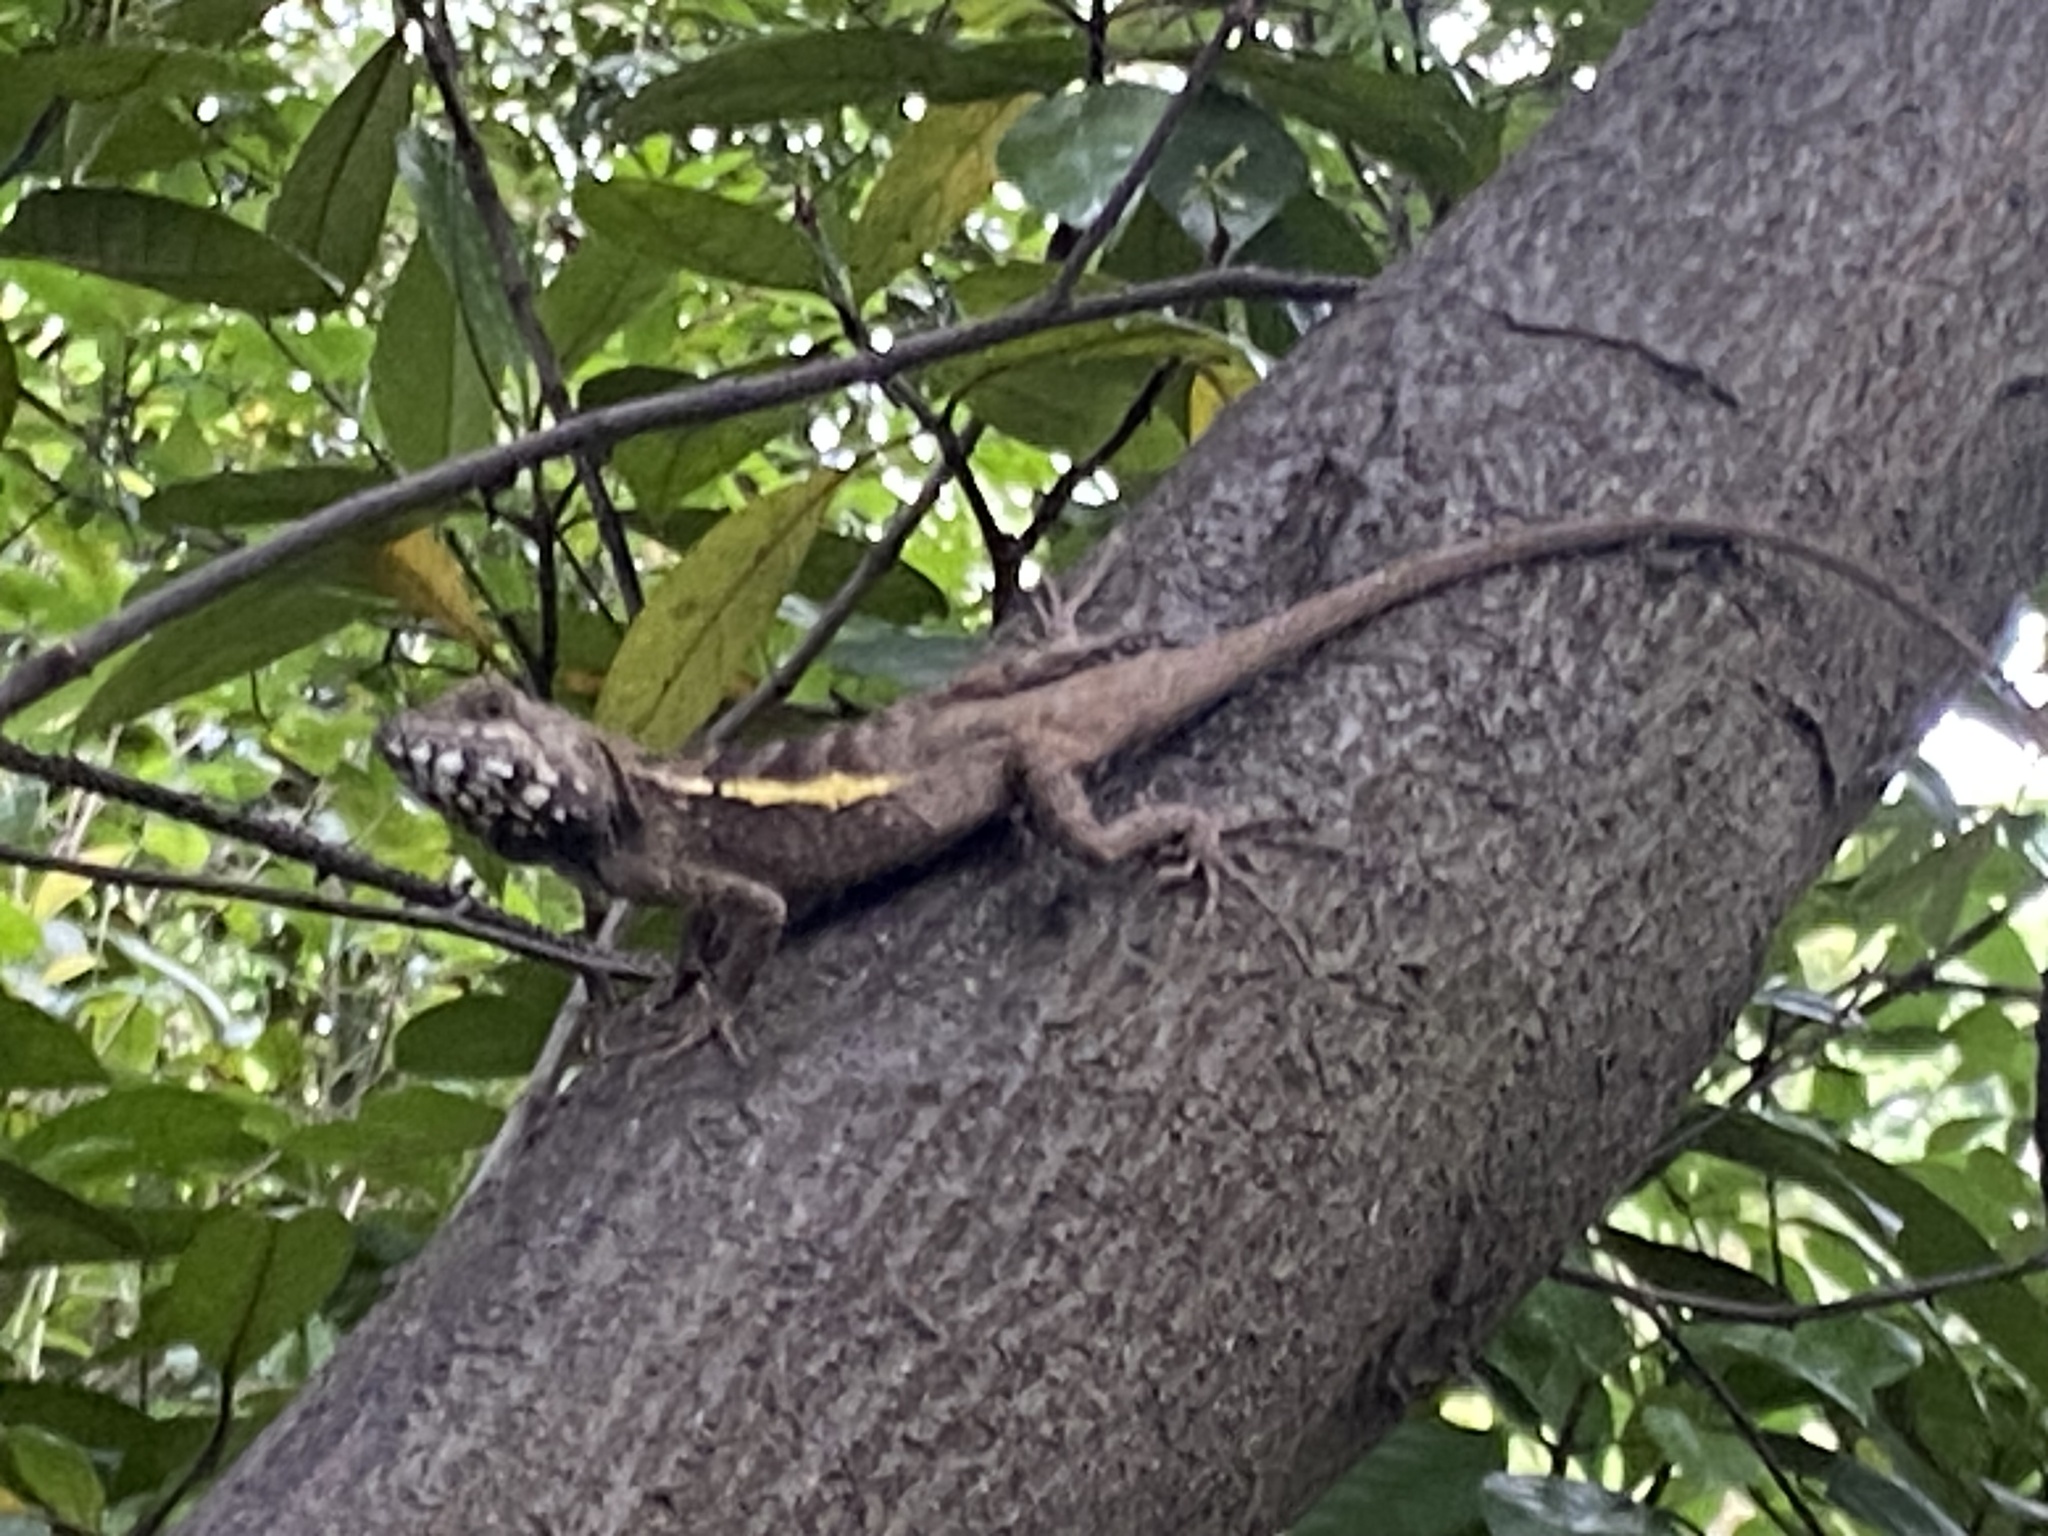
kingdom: Animalia
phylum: Chordata
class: Squamata
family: Agamidae
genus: Diploderma
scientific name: Diploderma swinhonis
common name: Taiwan japalure
